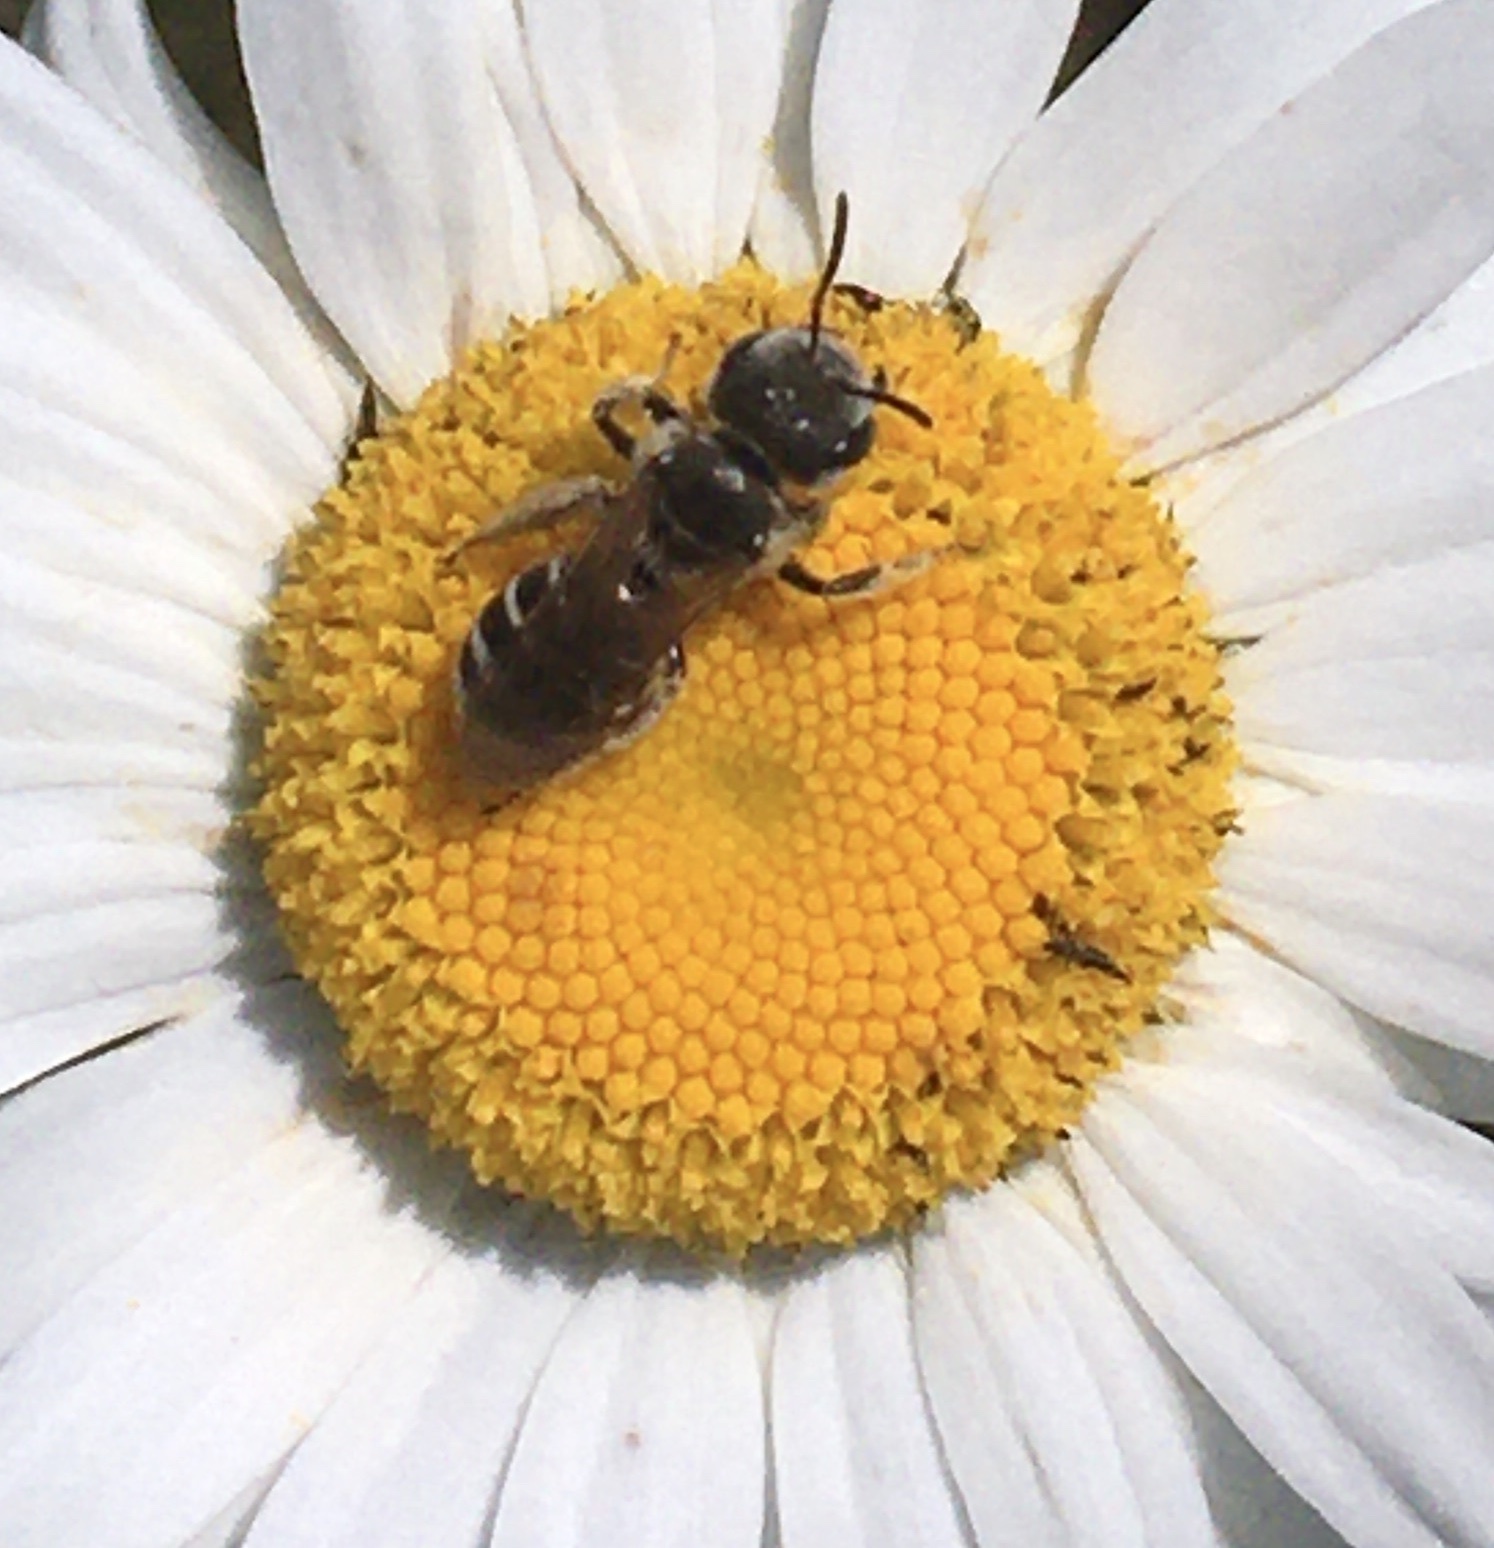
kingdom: Animalia
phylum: Arthropoda
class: Insecta
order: Hymenoptera
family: Halictidae
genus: Halictus
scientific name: Halictus ligatus
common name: Ligated furrow bee
